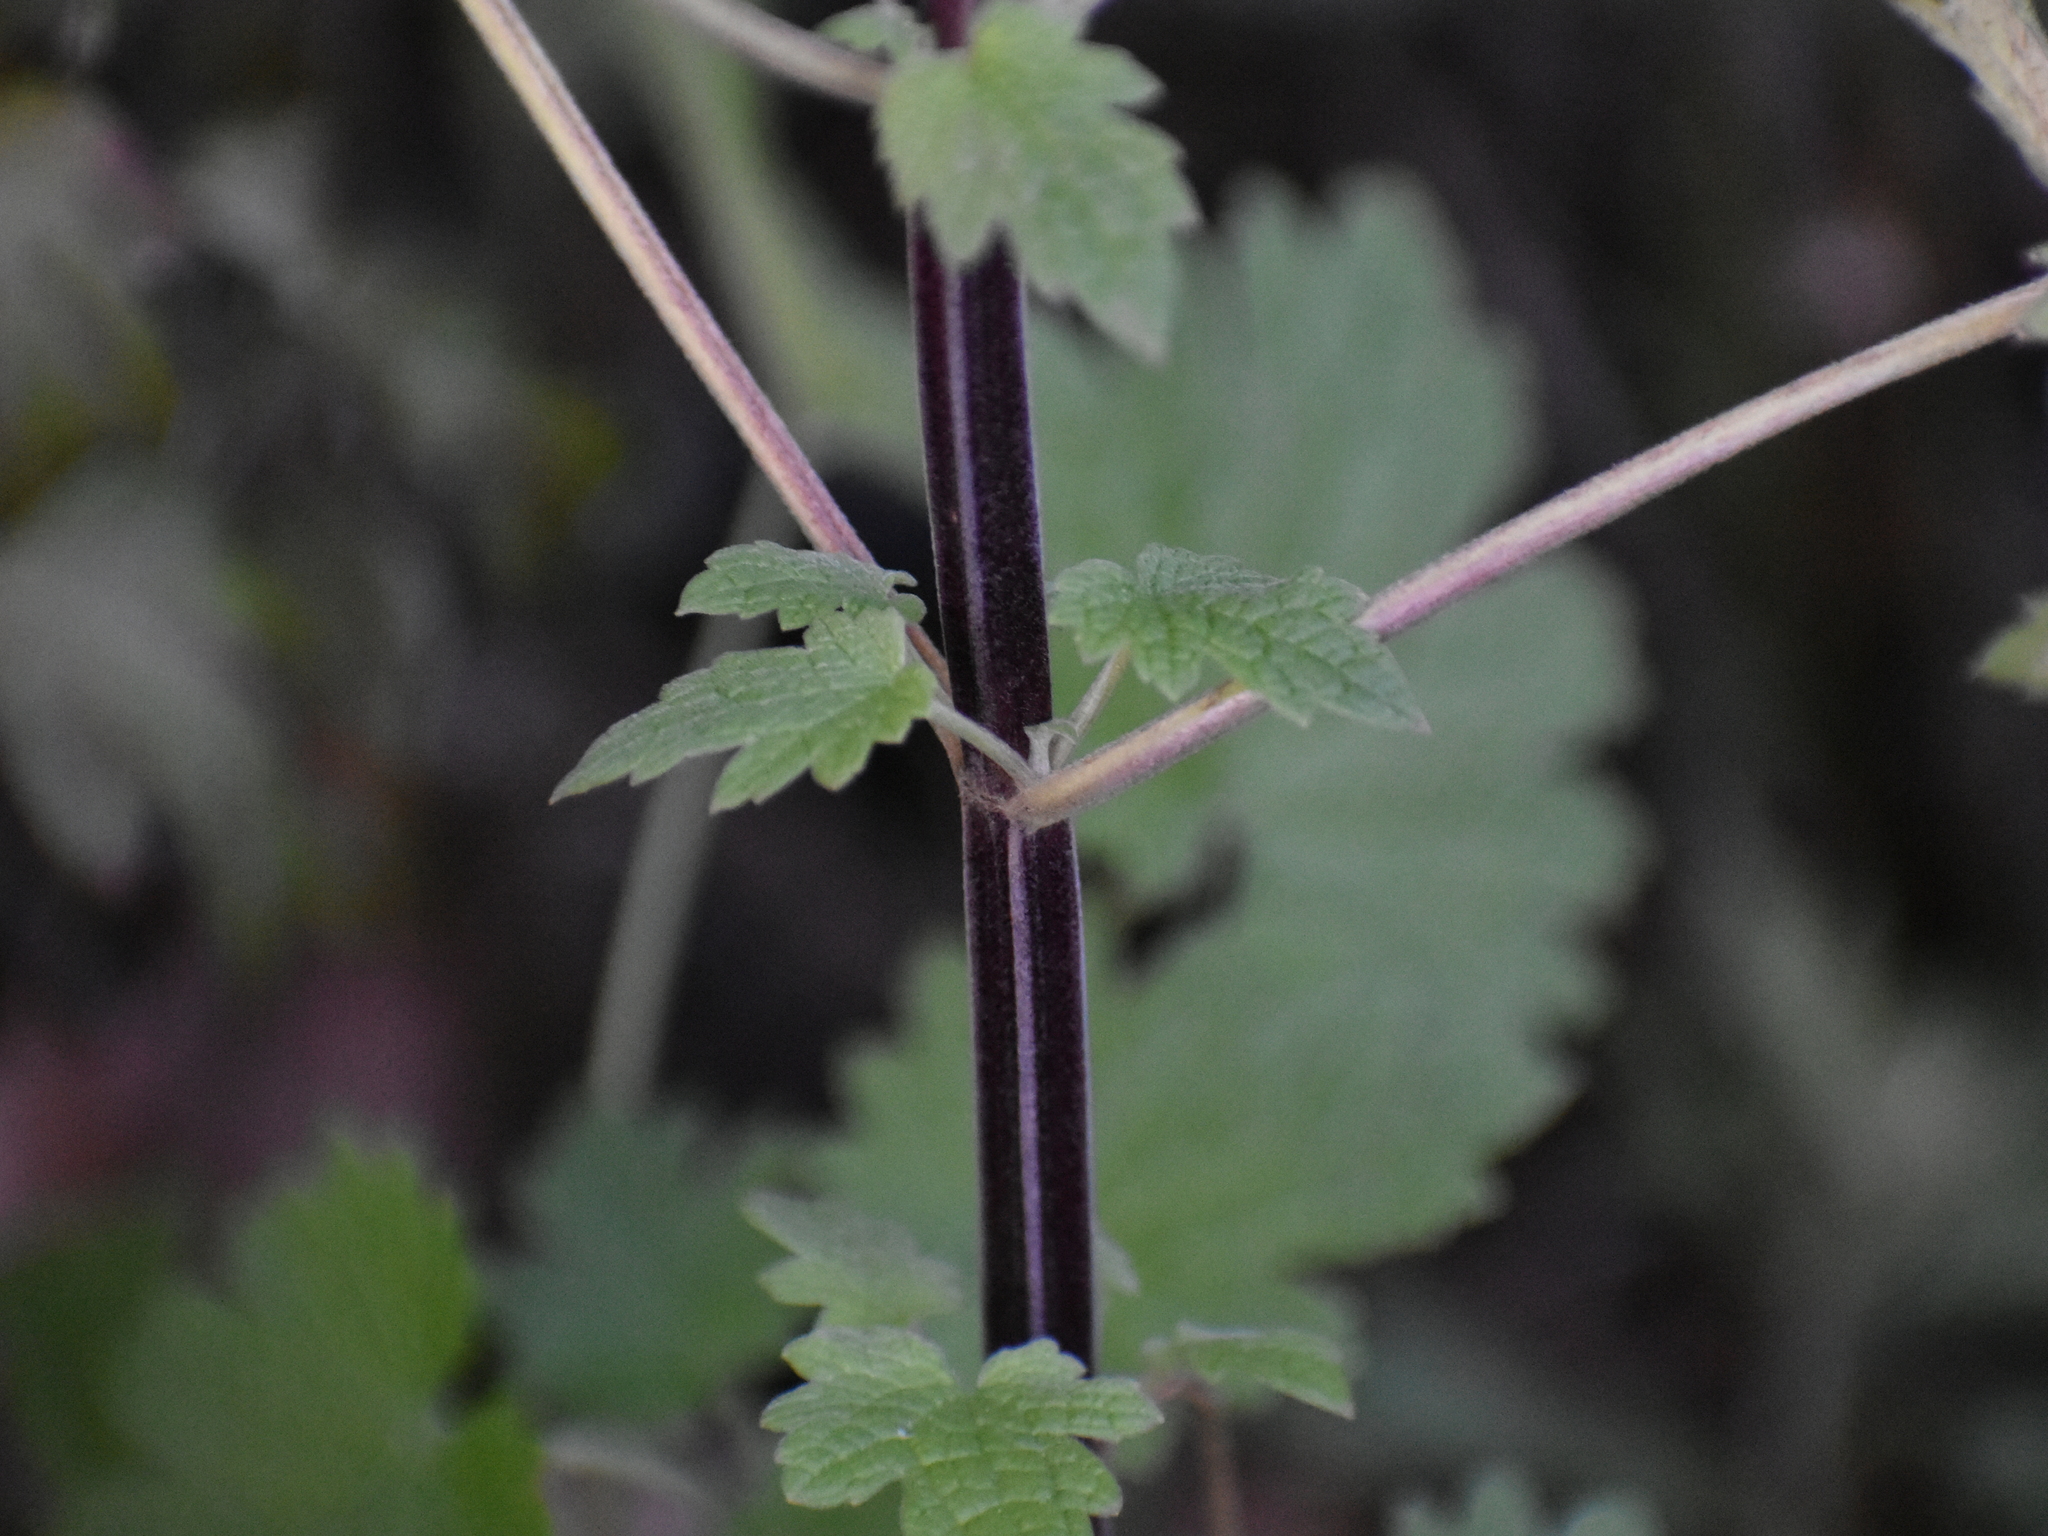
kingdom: Plantae
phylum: Tracheophyta
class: Magnoliopsida
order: Lamiales
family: Lamiaceae
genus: Leonurus
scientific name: Leonurus cardiaca
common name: Motherwort
